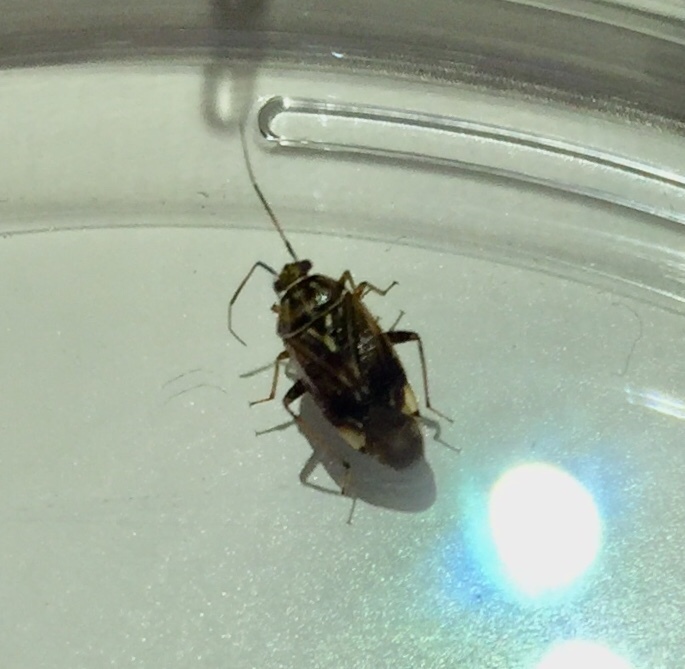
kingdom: Animalia
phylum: Arthropoda
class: Insecta
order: Hemiptera
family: Miridae
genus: Lygus
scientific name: Lygus lineolaris
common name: North american tarnished plant bug
